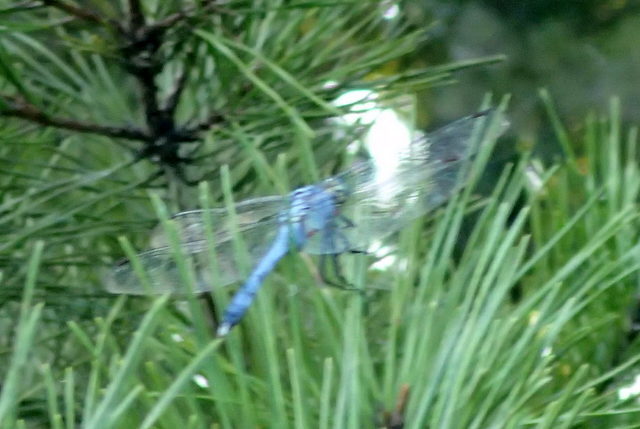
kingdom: Animalia
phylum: Arthropoda
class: Insecta
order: Odonata
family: Libellulidae
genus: Erythemis
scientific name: Erythemis simplicicollis
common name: Eastern pondhawk
